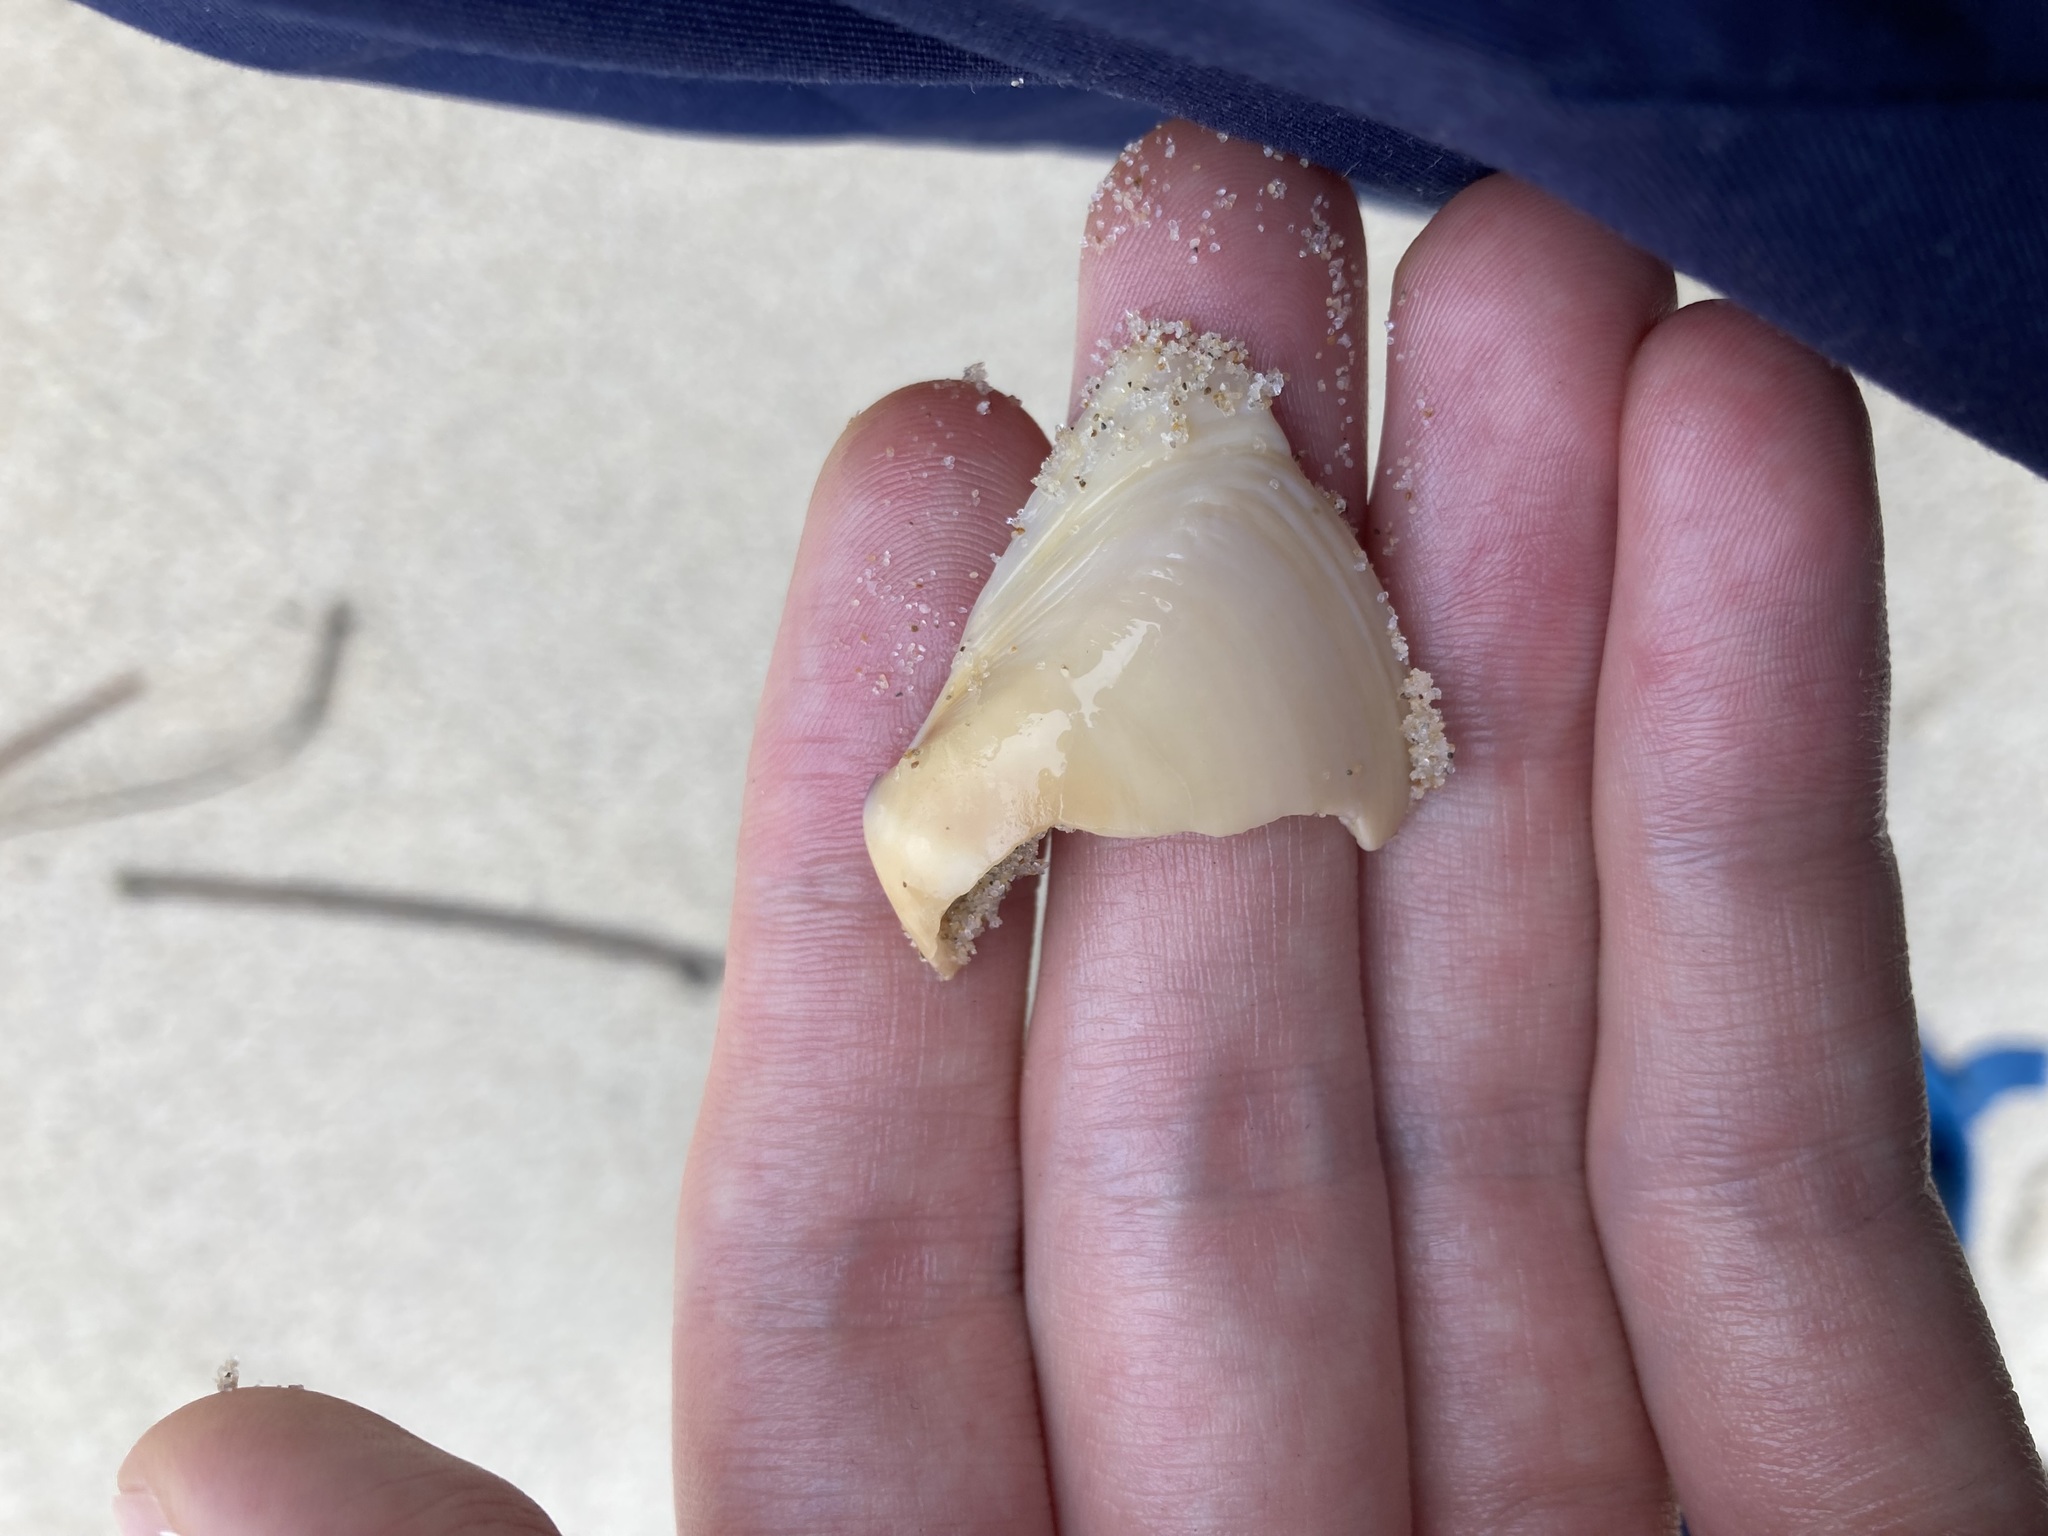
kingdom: Animalia
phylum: Mollusca
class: Bivalvia
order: Venerida
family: Mactridae
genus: Austromactra
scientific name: Austromactra rufescens
